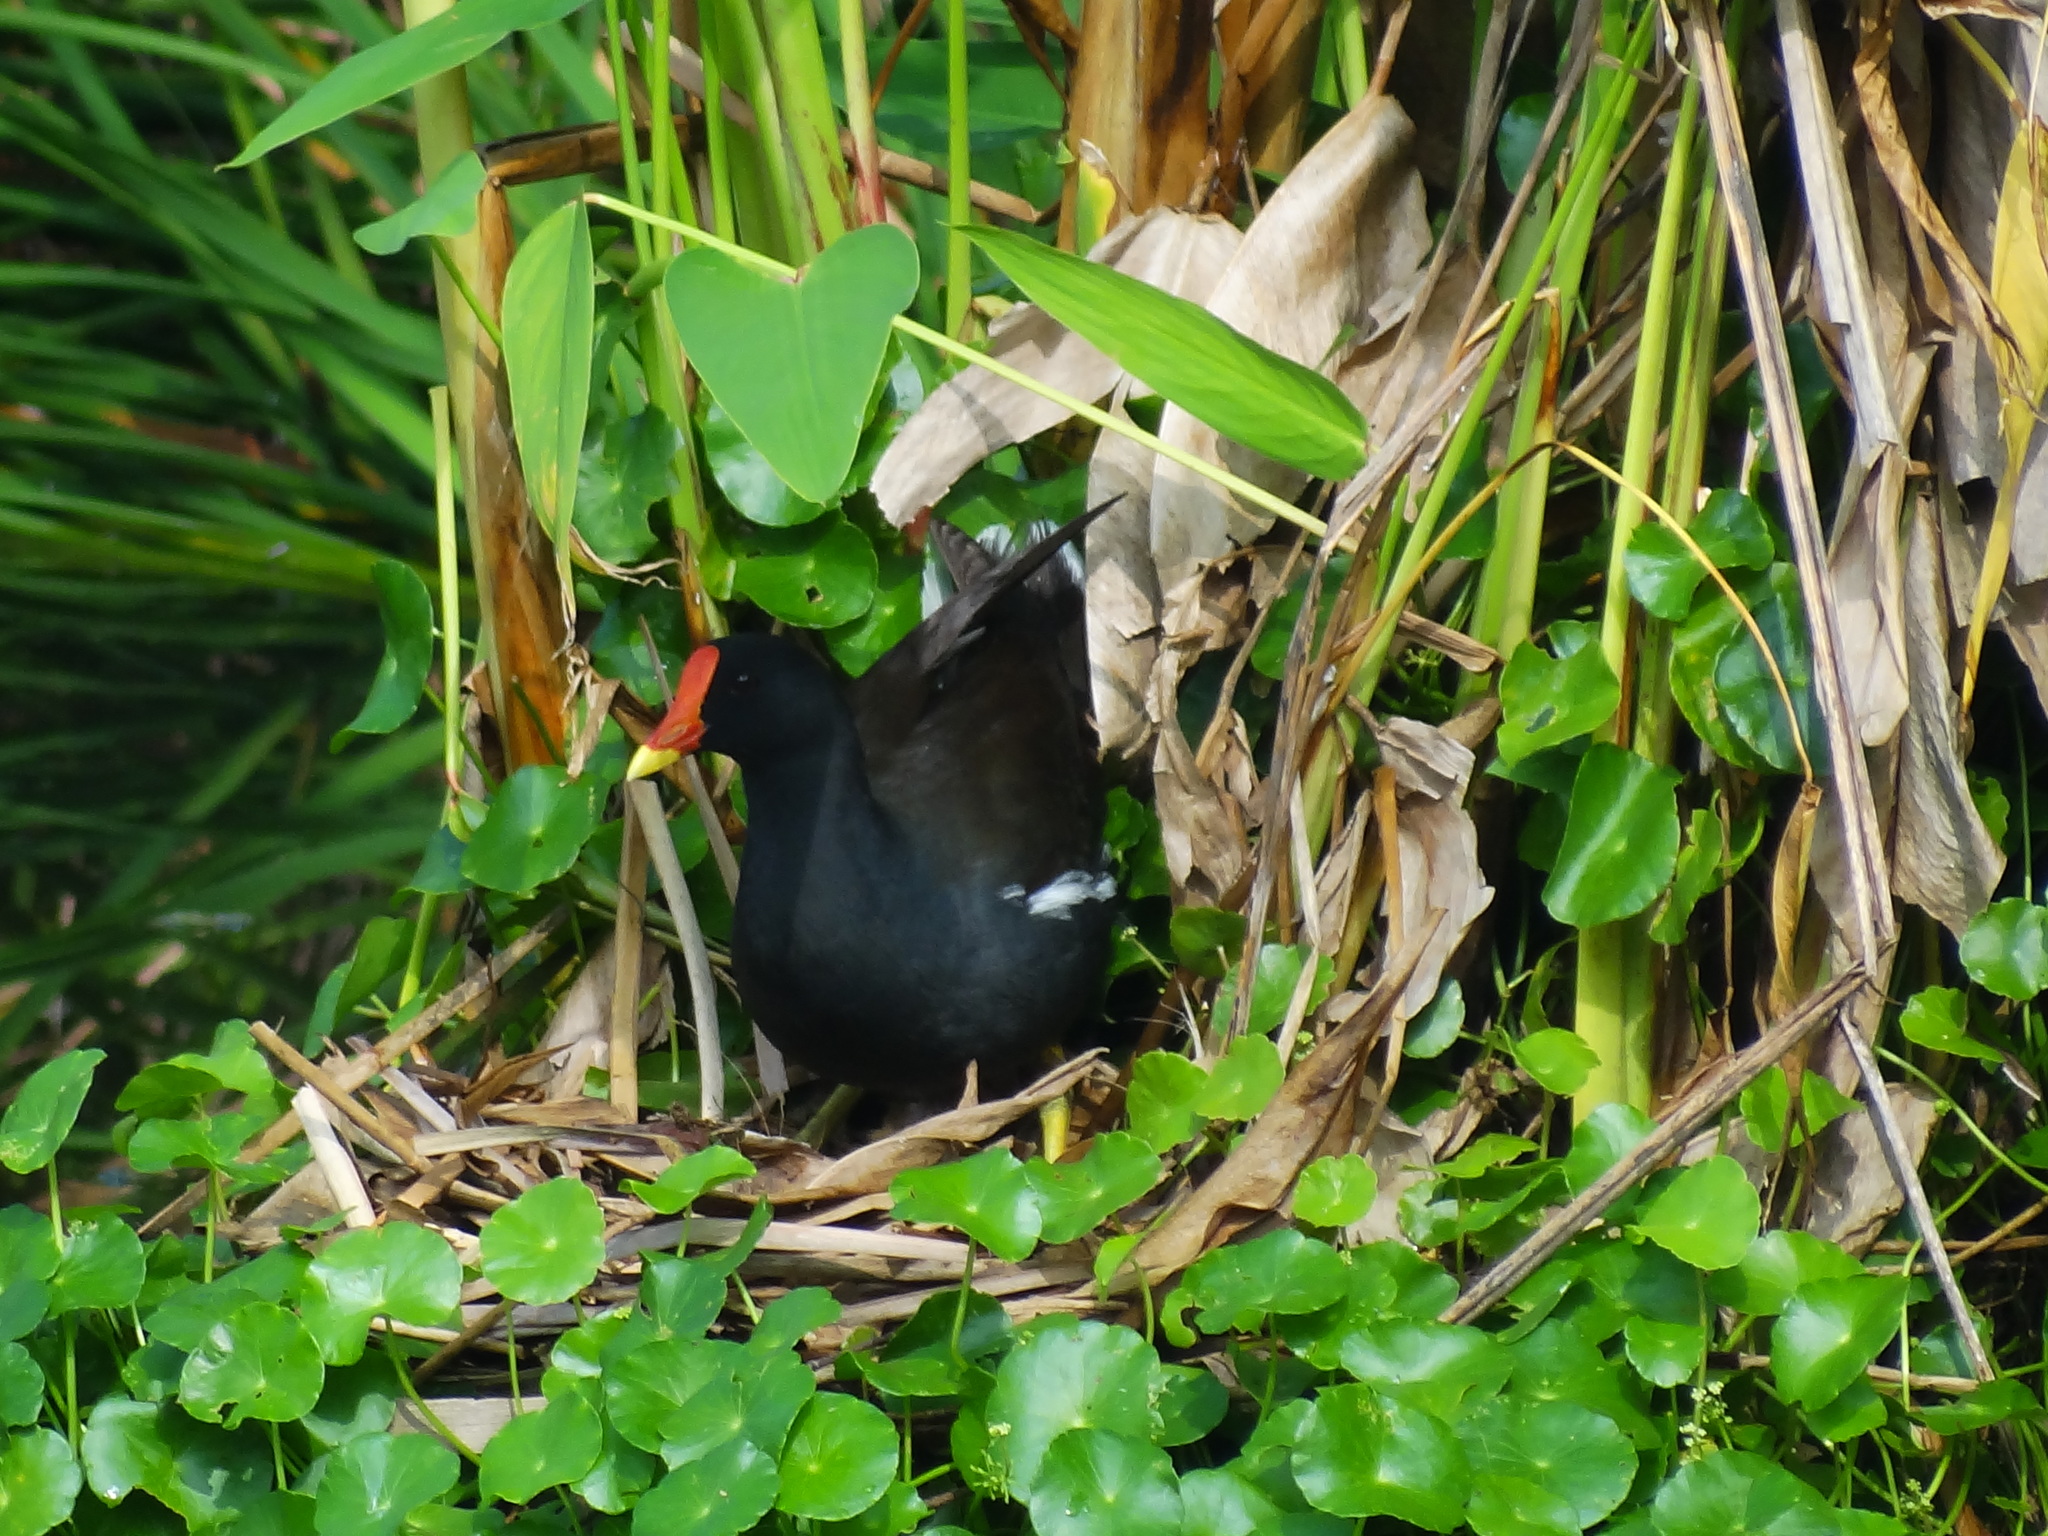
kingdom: Animalia
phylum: Chordata
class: Aves
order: Gruiformes
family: Rallidae
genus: Gallinula
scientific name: Gallinula chloropus
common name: Common moorhen
